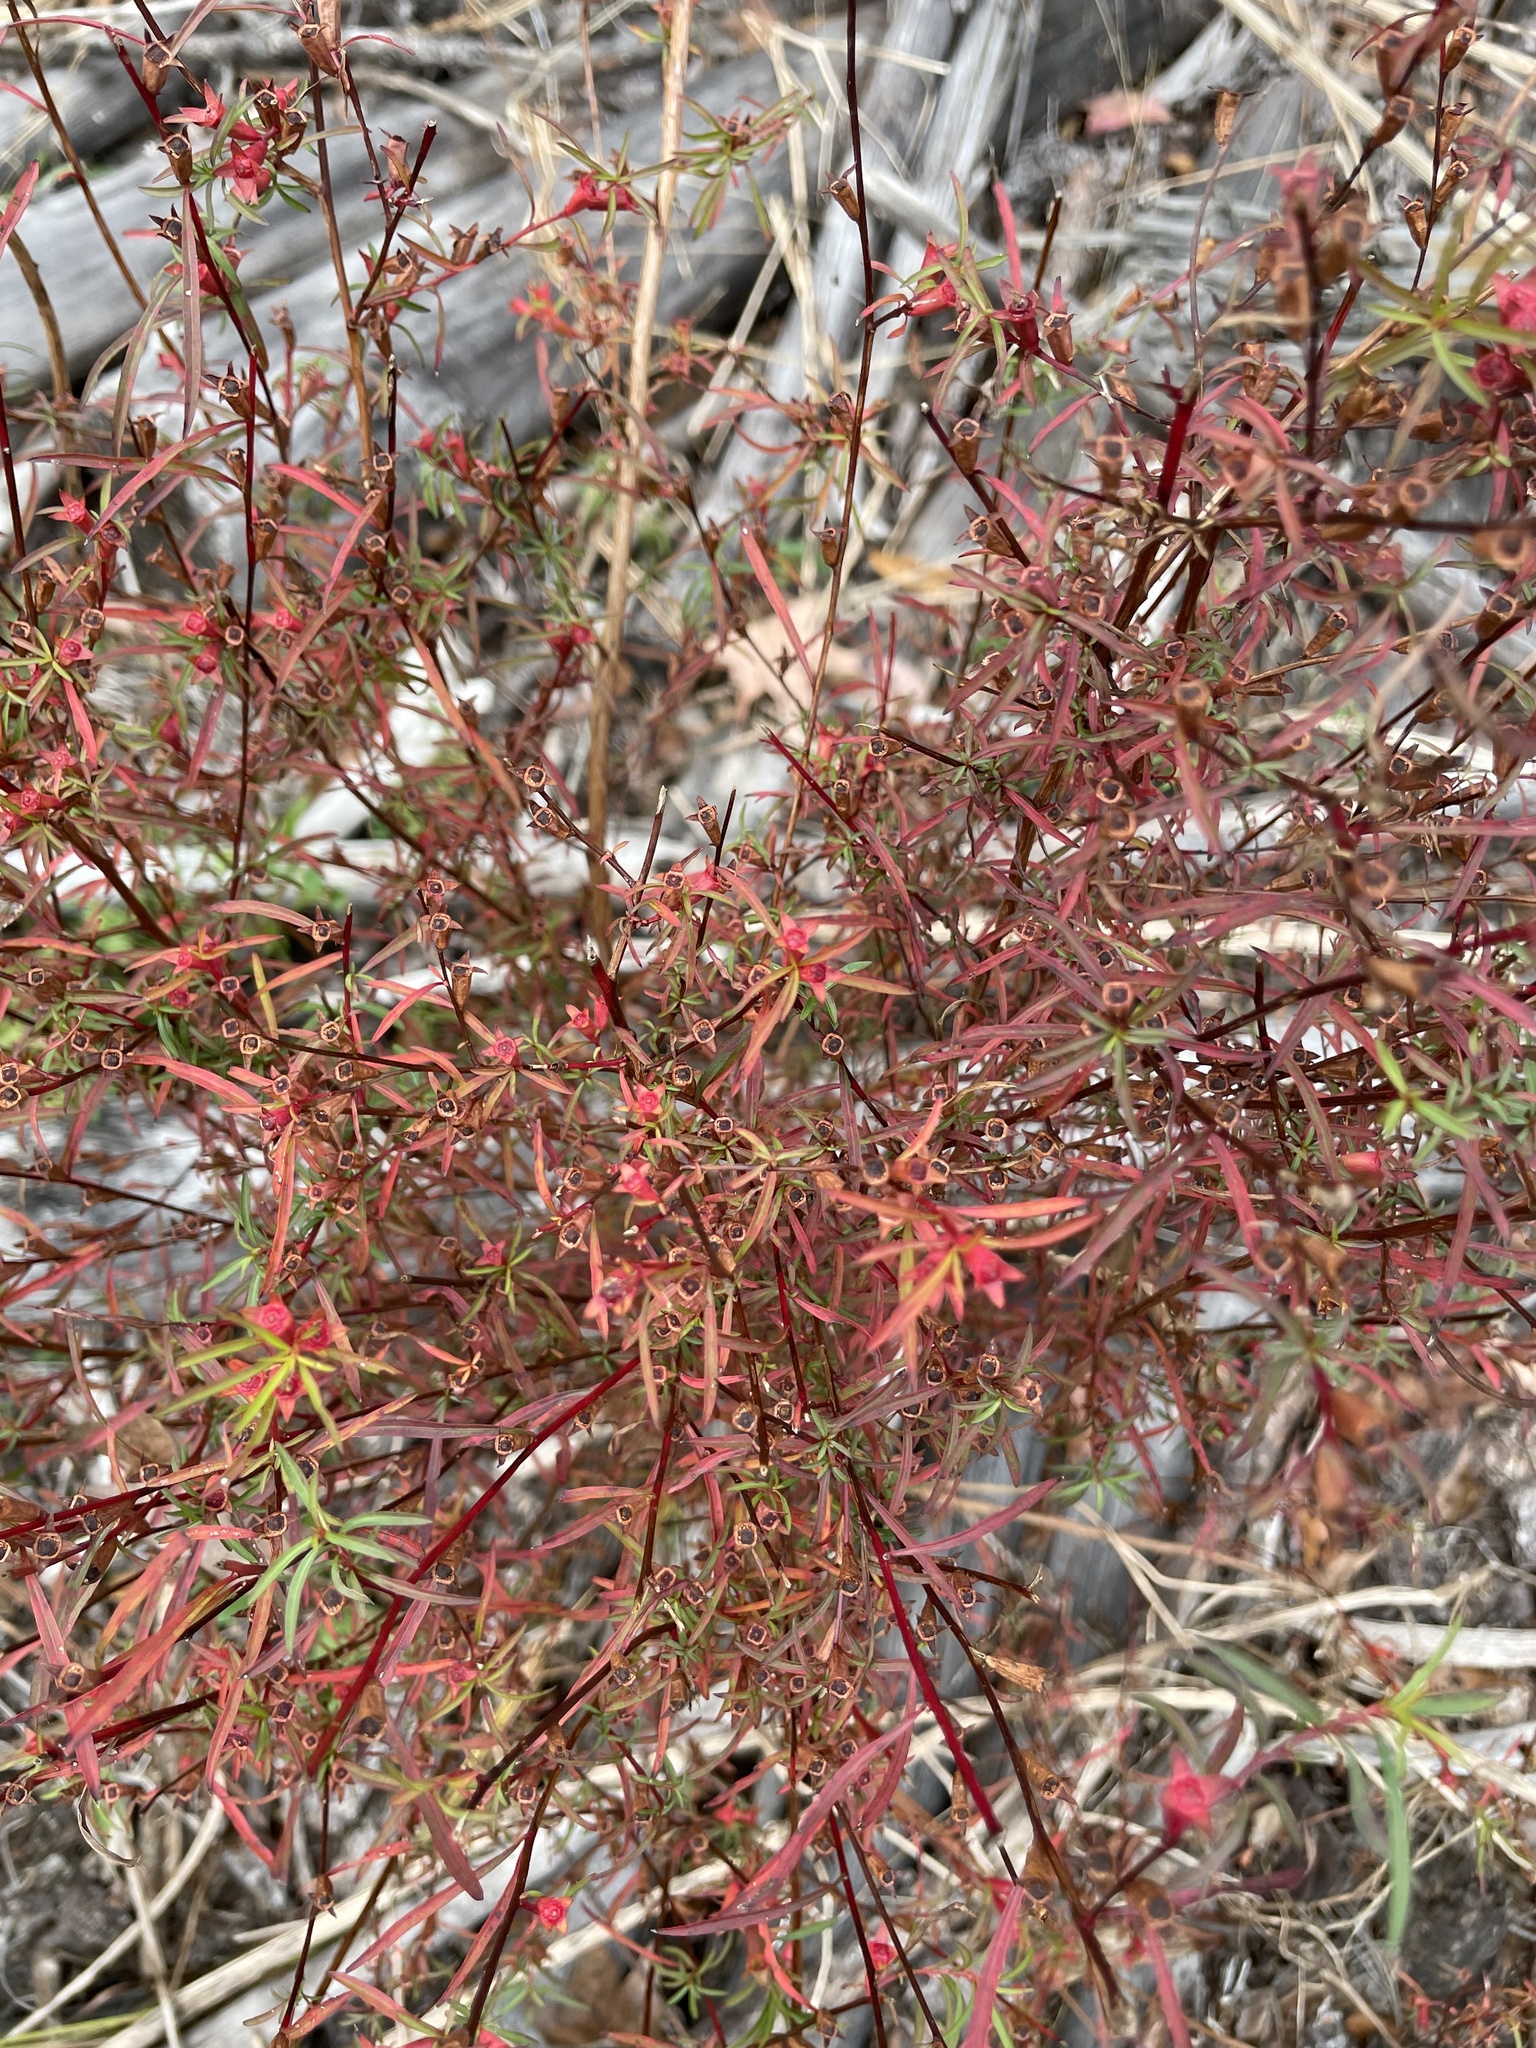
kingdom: Plantae
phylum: Tracheophyta
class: Magnoliopsida
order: Myrtales
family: Onagraceae
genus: Ludwigia
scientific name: Ludwigia linearis
